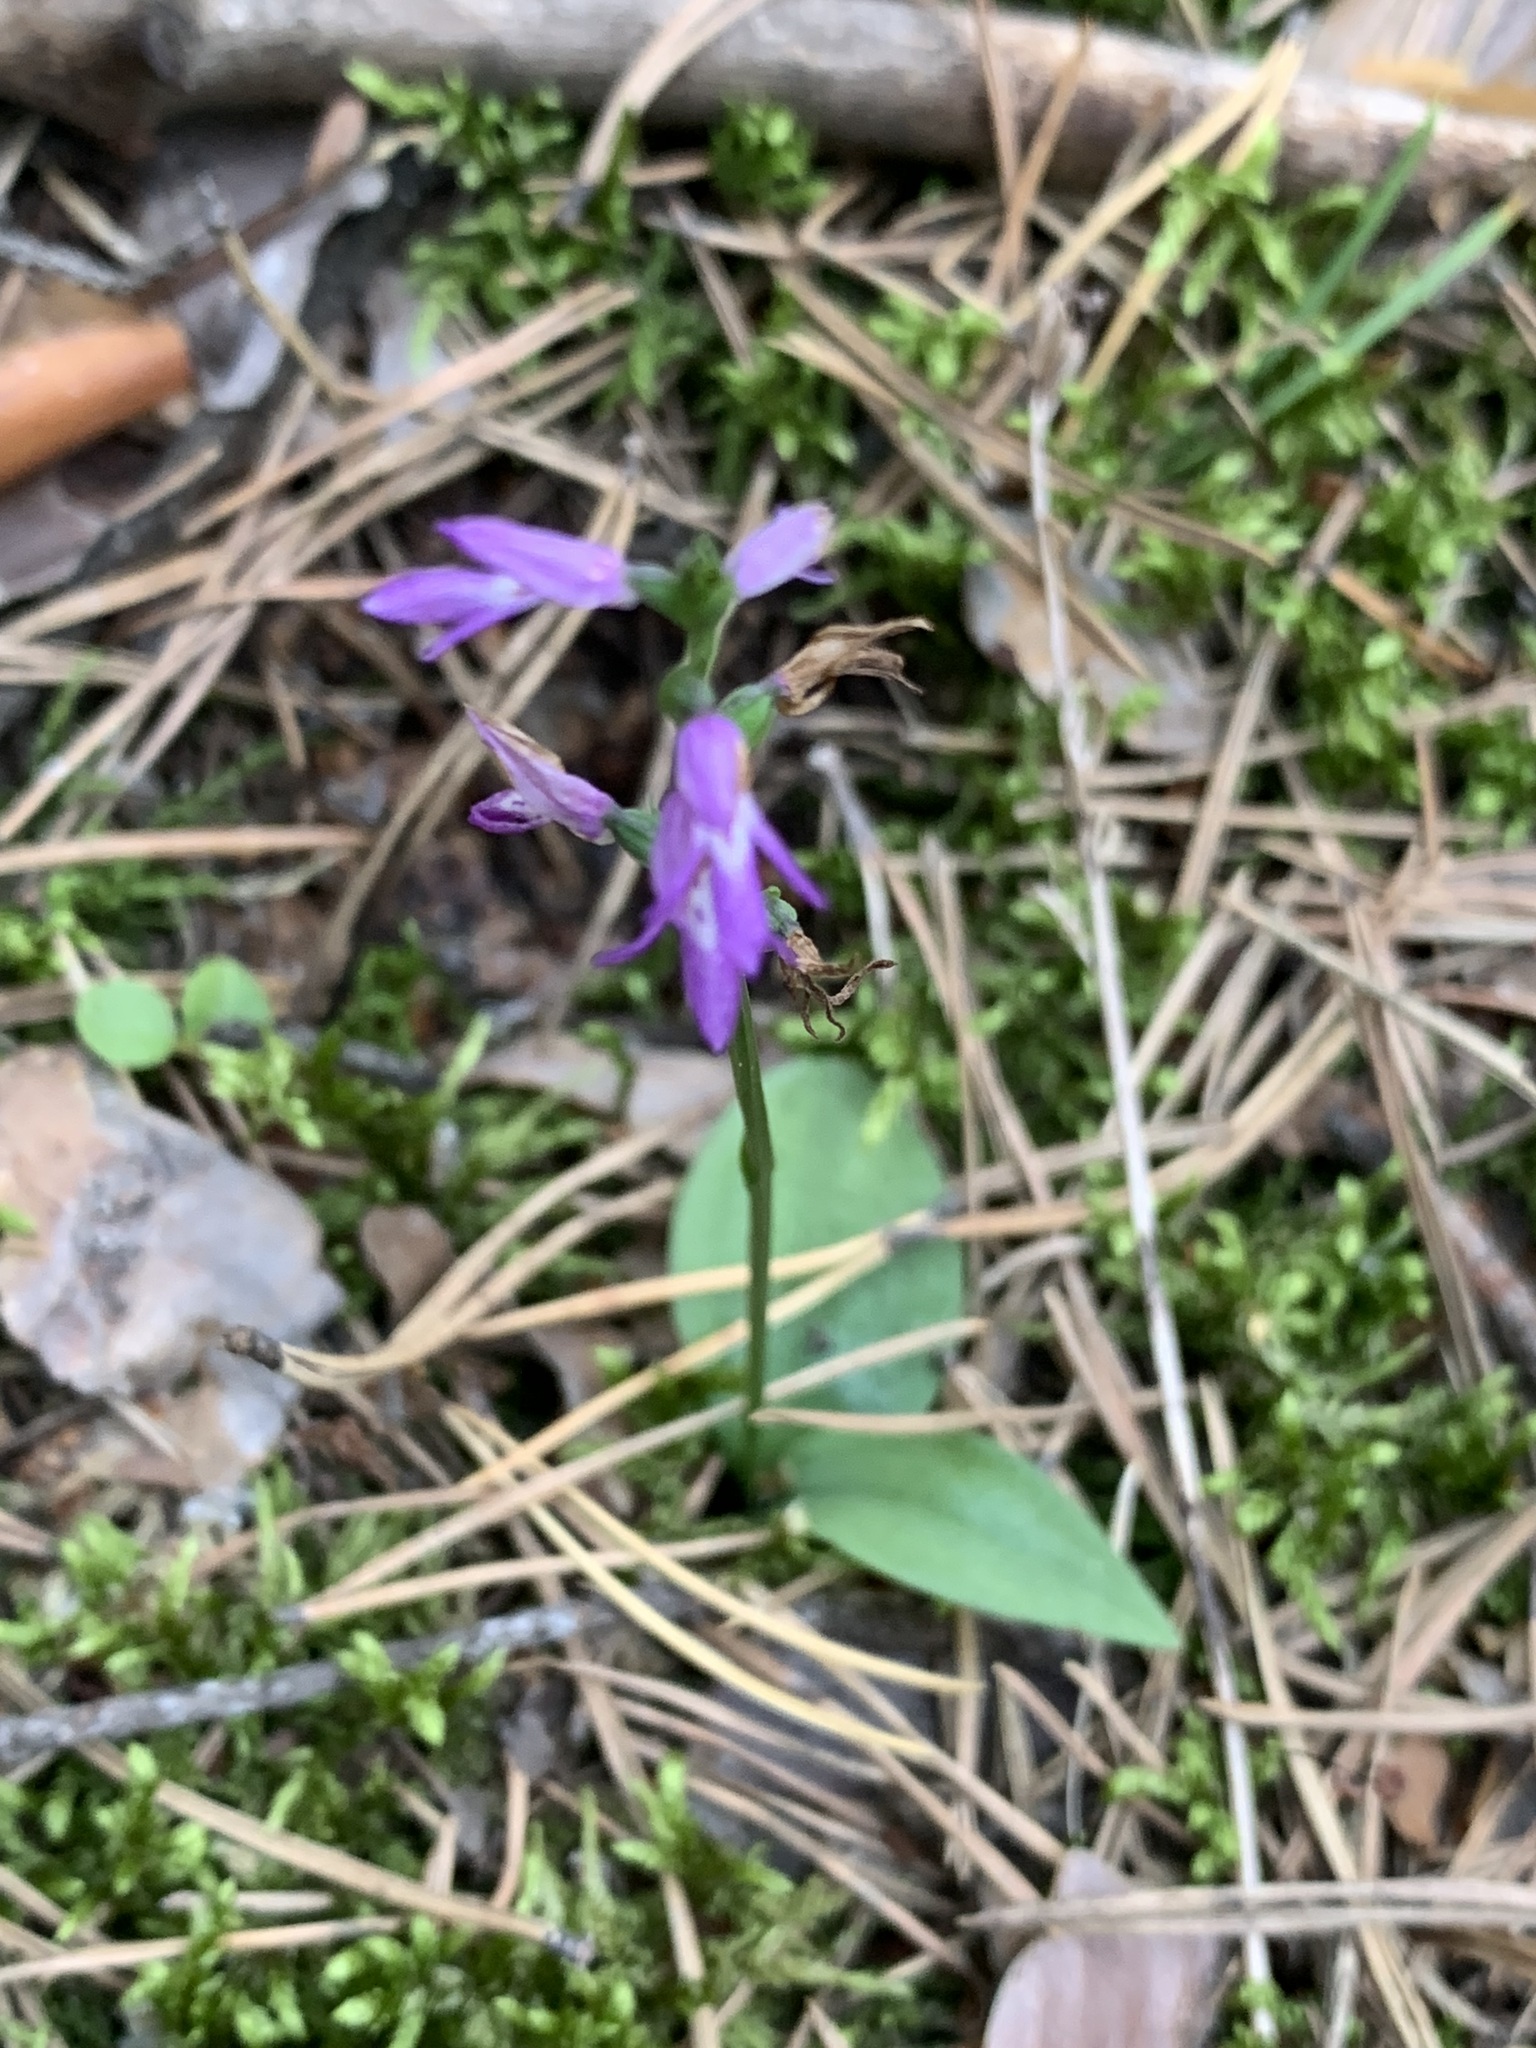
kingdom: Plantae
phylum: Tracheophyta
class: Liliopsida
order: Asparagales
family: Orchidaceae
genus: Hemipilia
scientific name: Hemipilia cucullata
